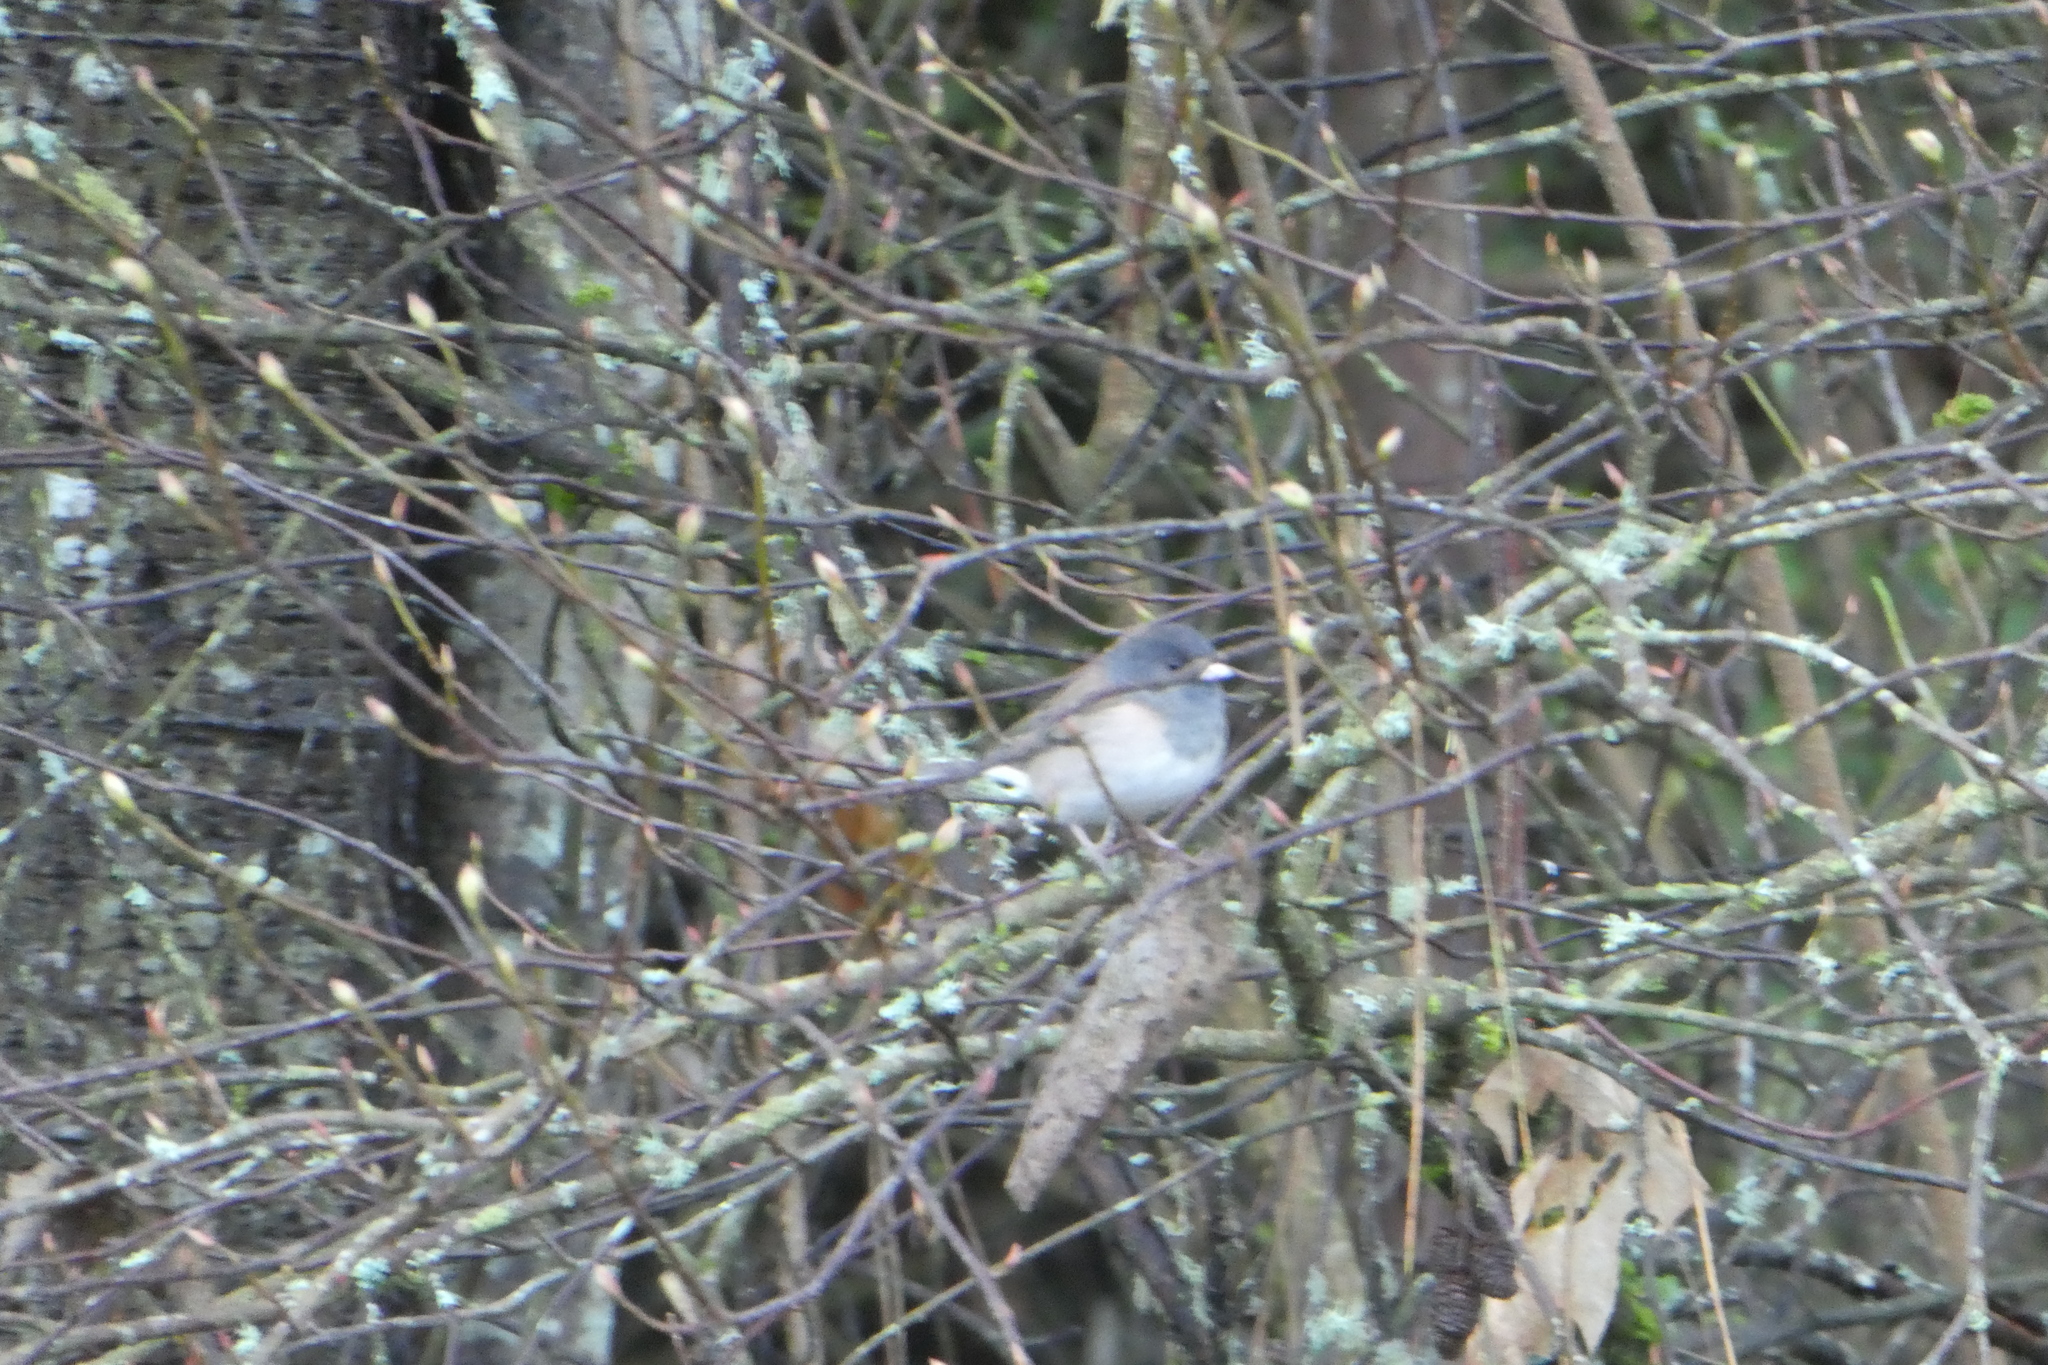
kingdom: Animalia
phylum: Chordata
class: Aves
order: Passeriformes
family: Passerellidae
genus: Junco
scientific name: Junco hyemalis
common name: Dark-eyed junco
